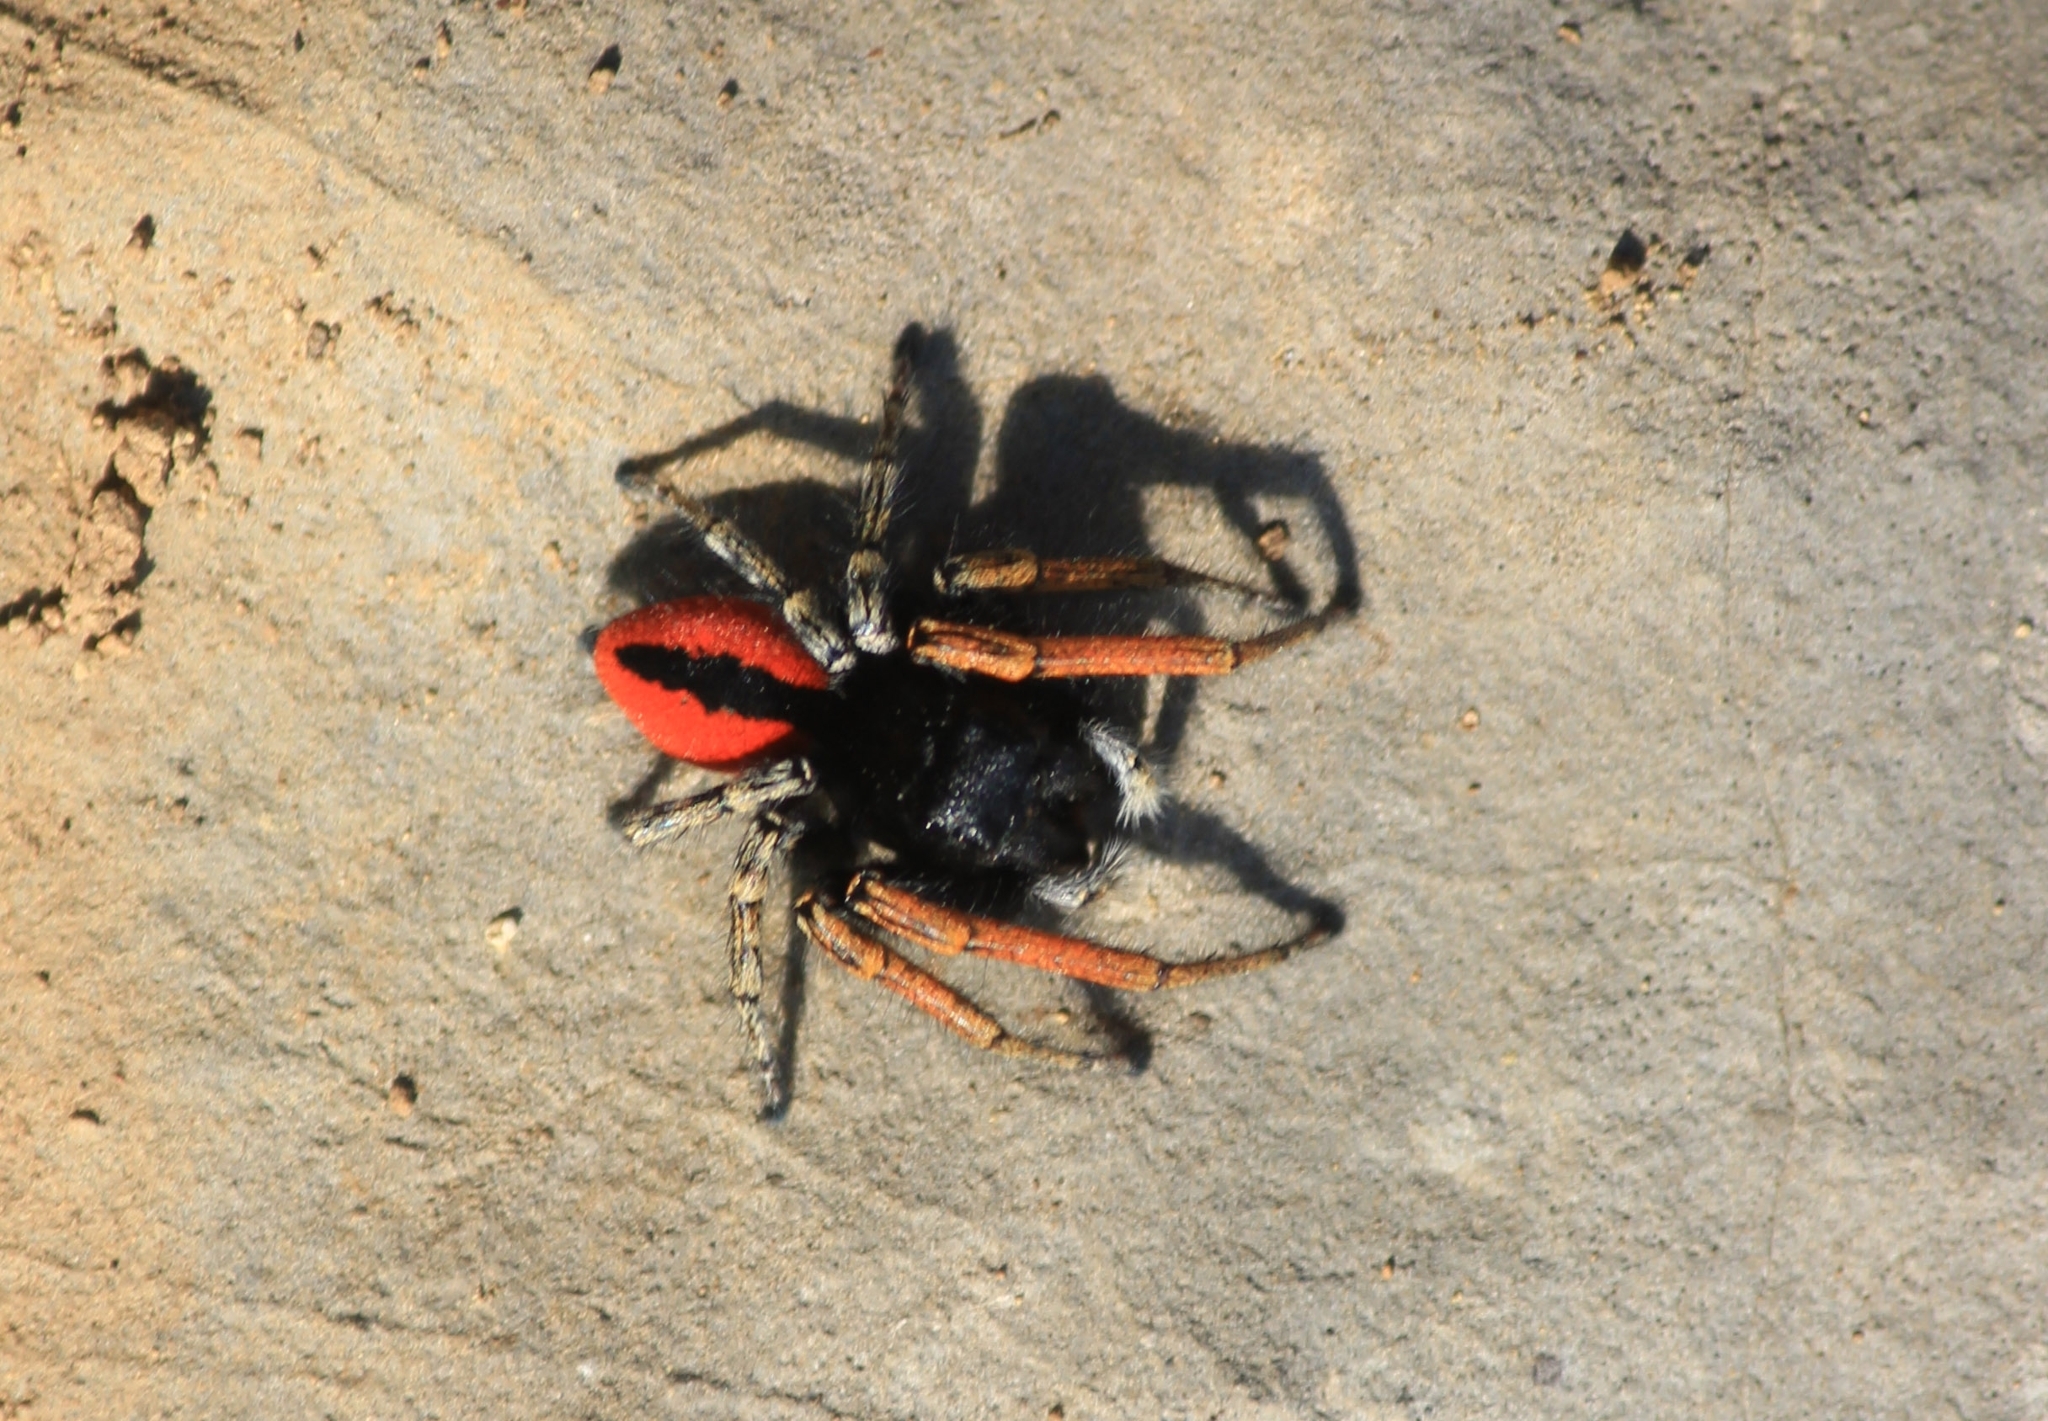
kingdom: Animalia
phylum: Arthropoda
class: Arachnida
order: Araneae
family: Salticidae
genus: Philaeus
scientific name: Philaeus chrysops
